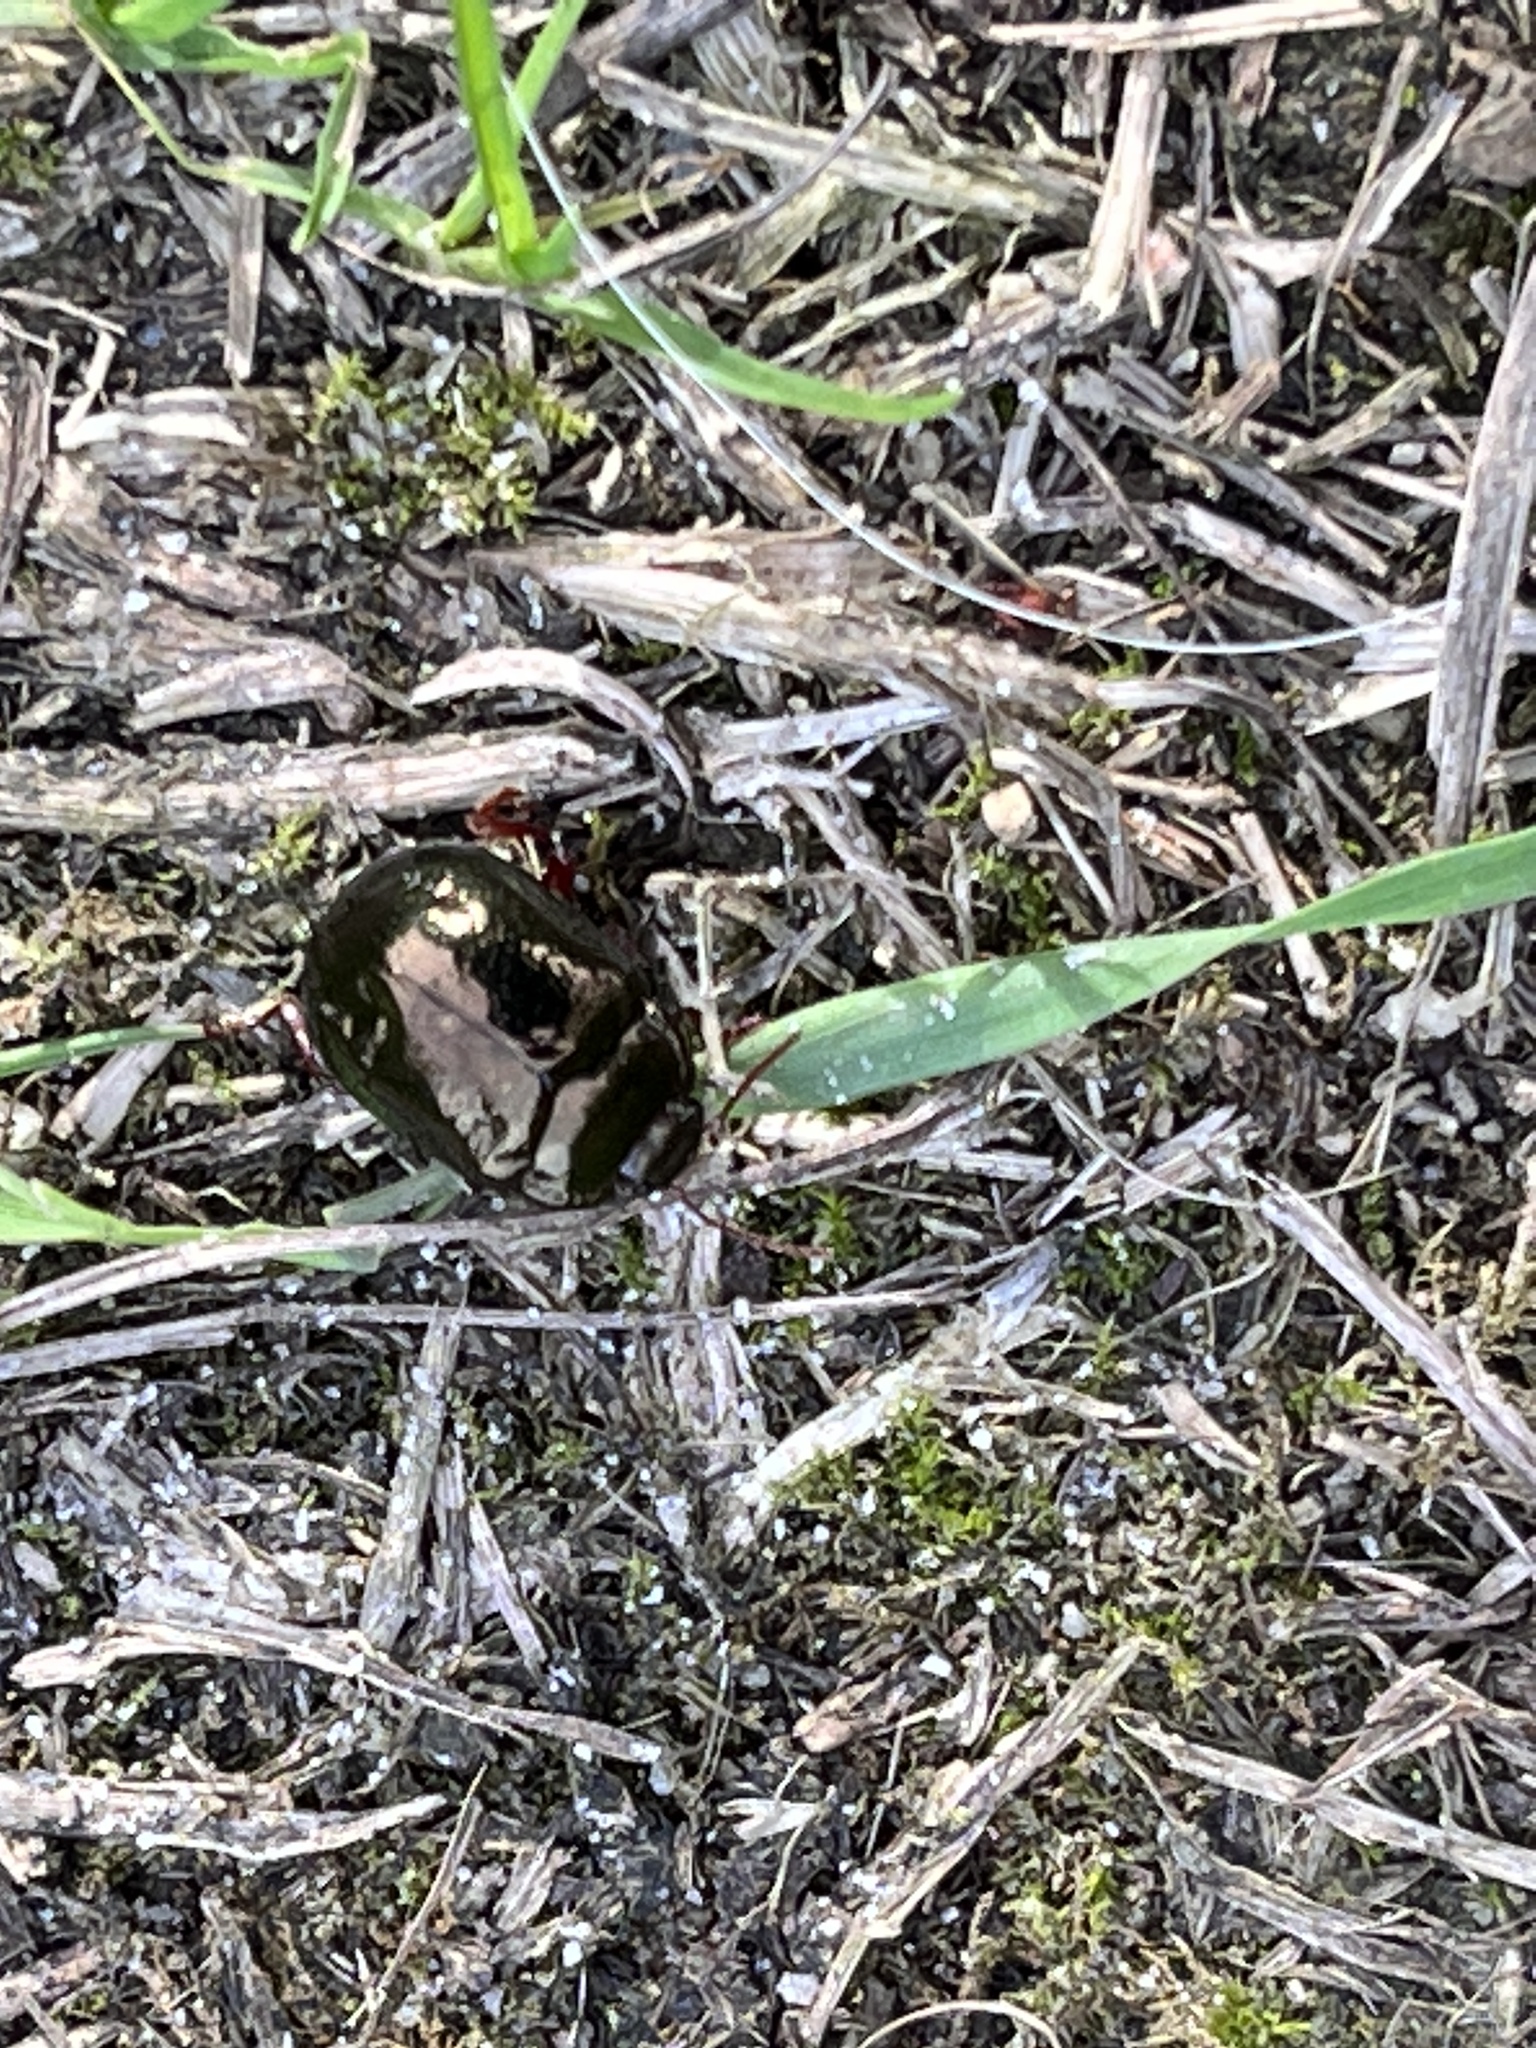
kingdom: Animalia
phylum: Arthropoda
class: Insecta
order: Coleoptera
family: Chrysomelidae
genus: Chrysolina
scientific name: Chrysolina bankii
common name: Leaf beetle
